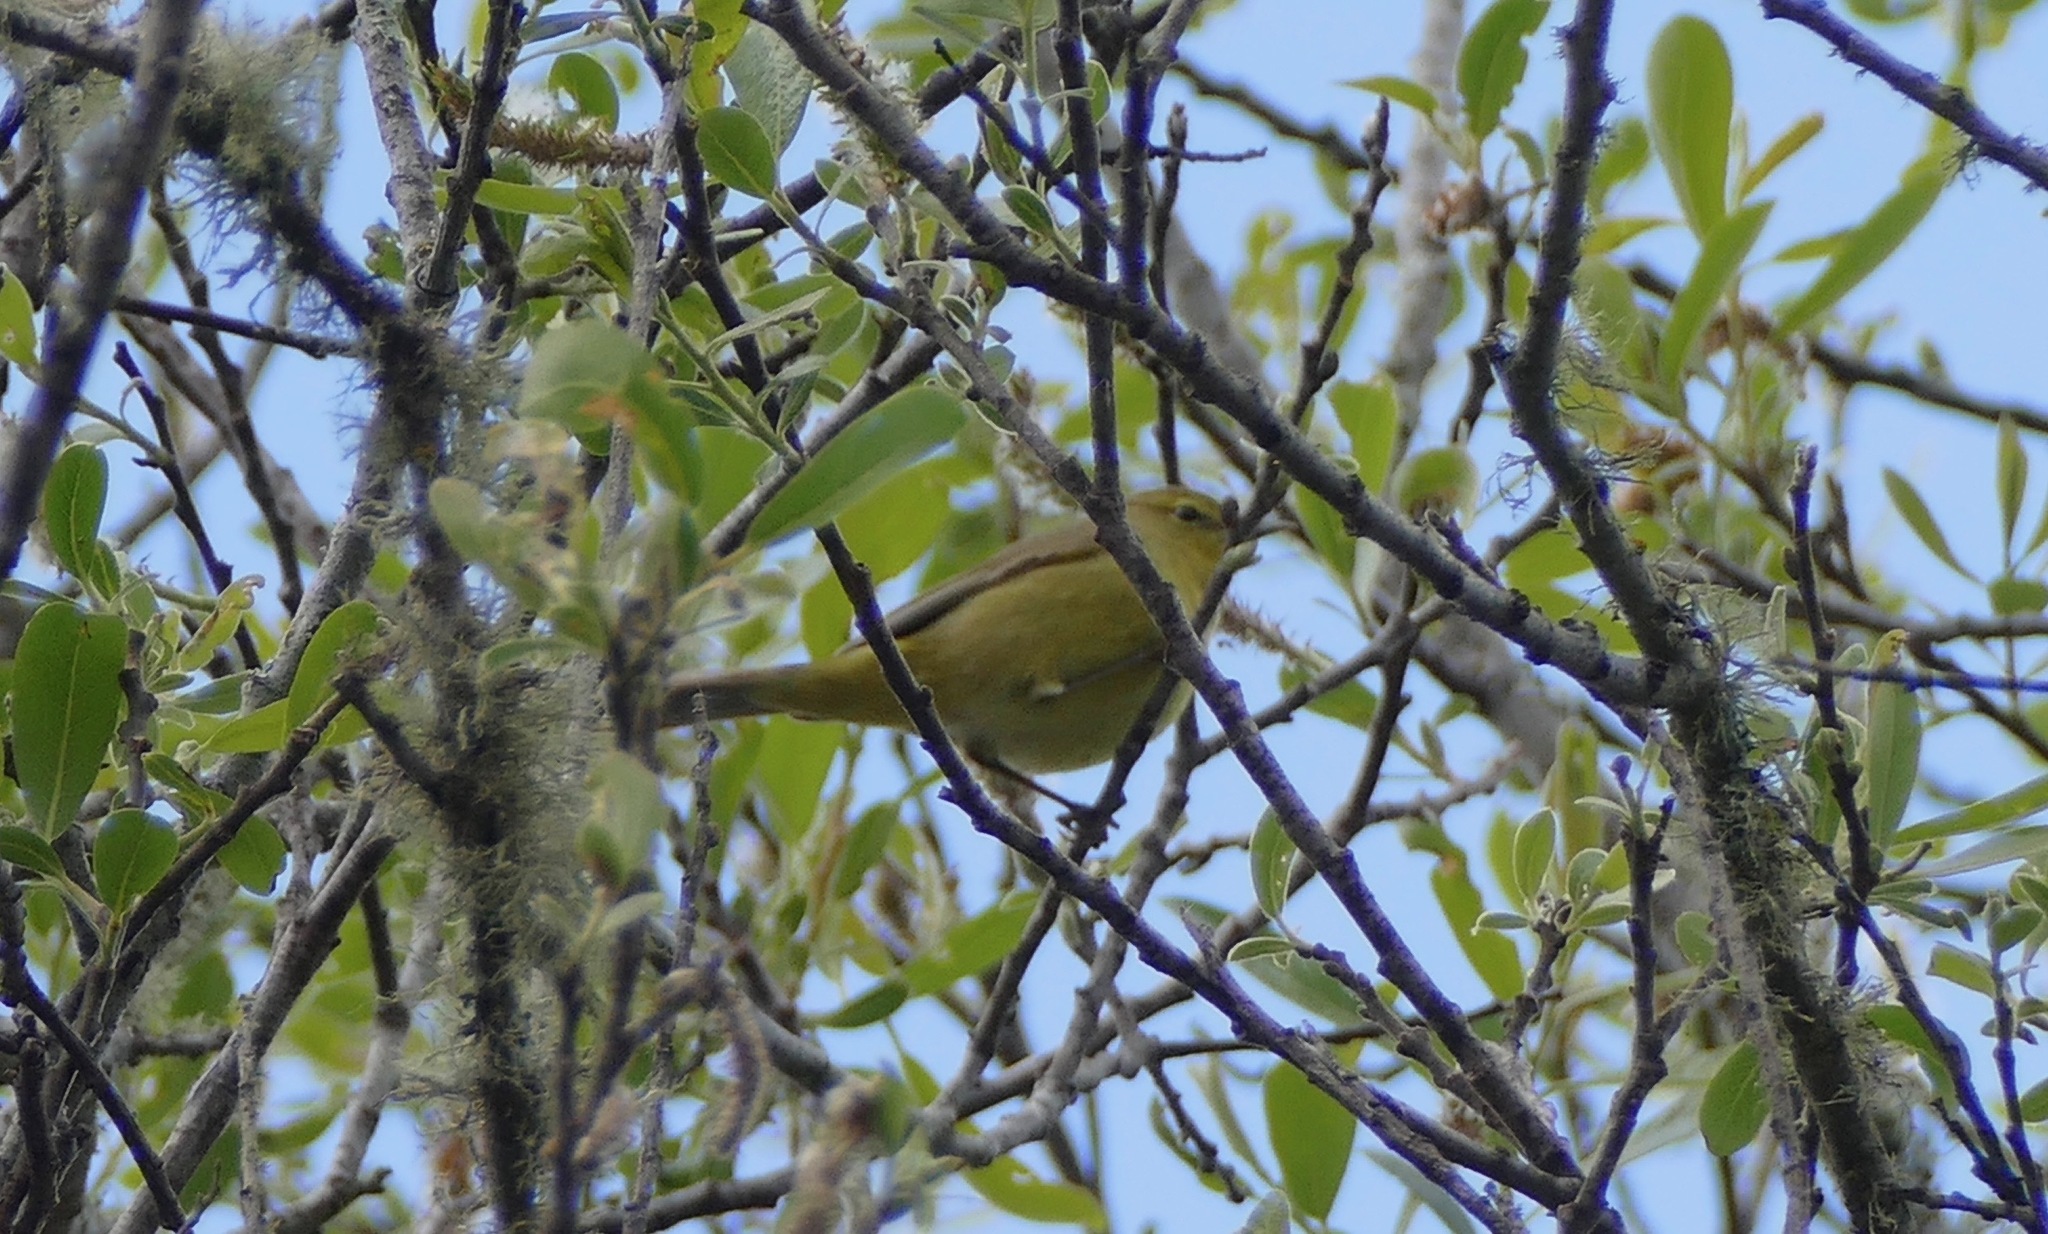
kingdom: Animalia
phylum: Chordata
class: Aves
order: Passeriformes
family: Parulidae
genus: Leiothlypis
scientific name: Leiothlypis celata
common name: Orange-crowned warbler
